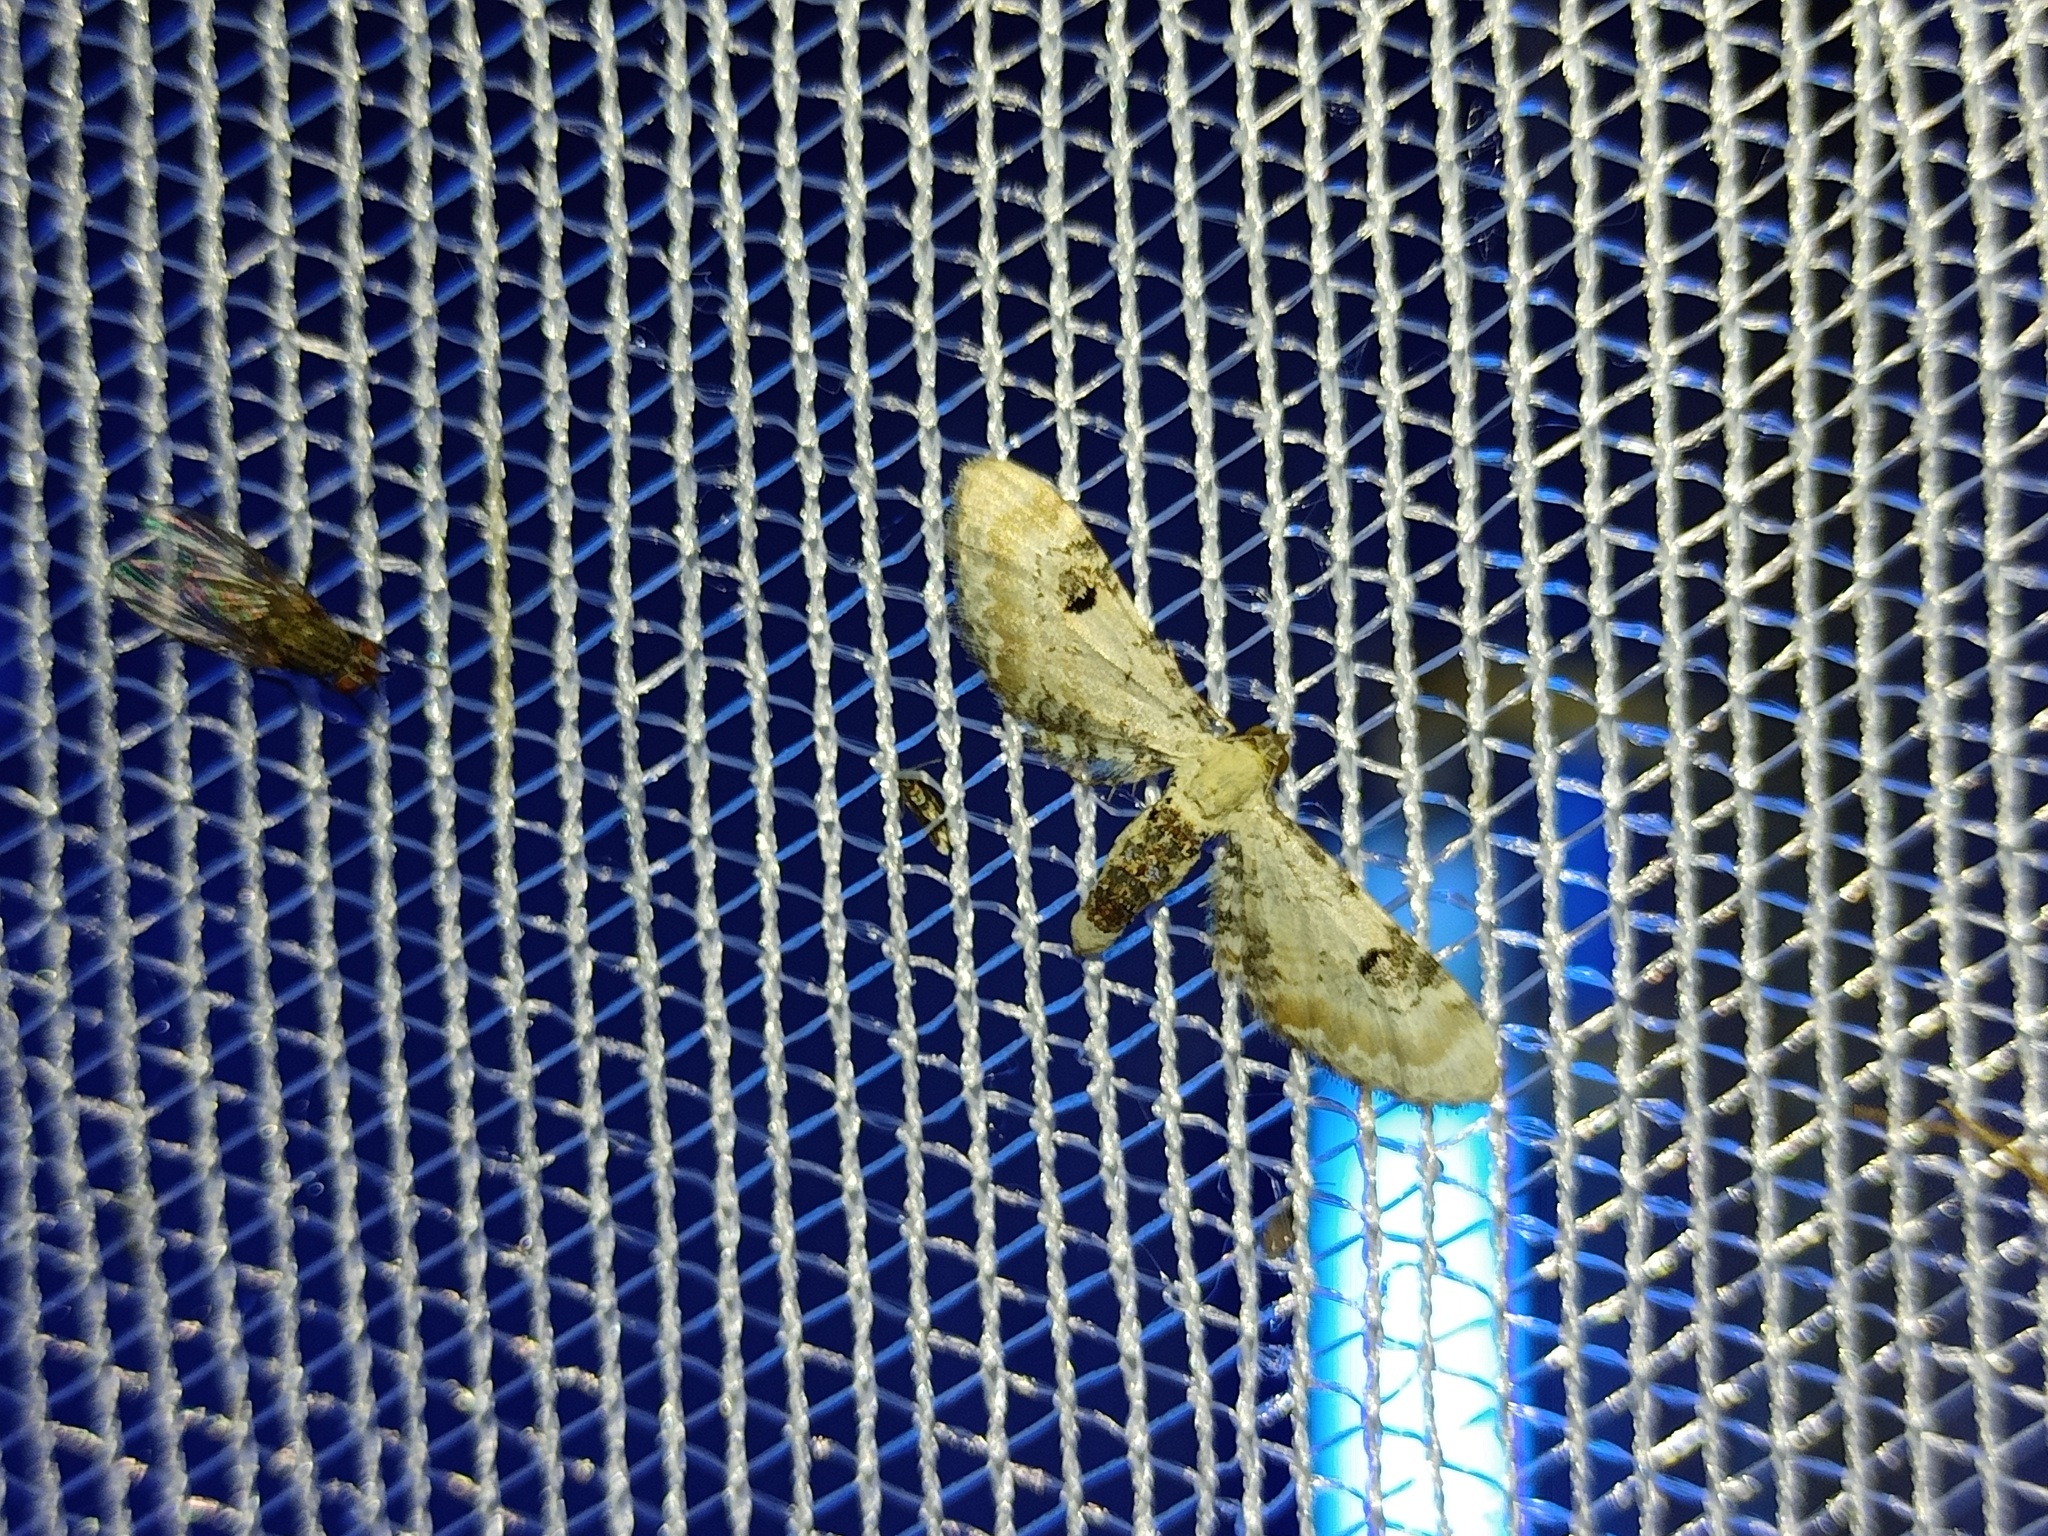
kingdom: Animalia
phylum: Arthropoda
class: Insecta
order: Lepidoptera
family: Geometridae
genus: Eupithecia
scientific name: Eupithecia centaureata
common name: Lime-speck pug
